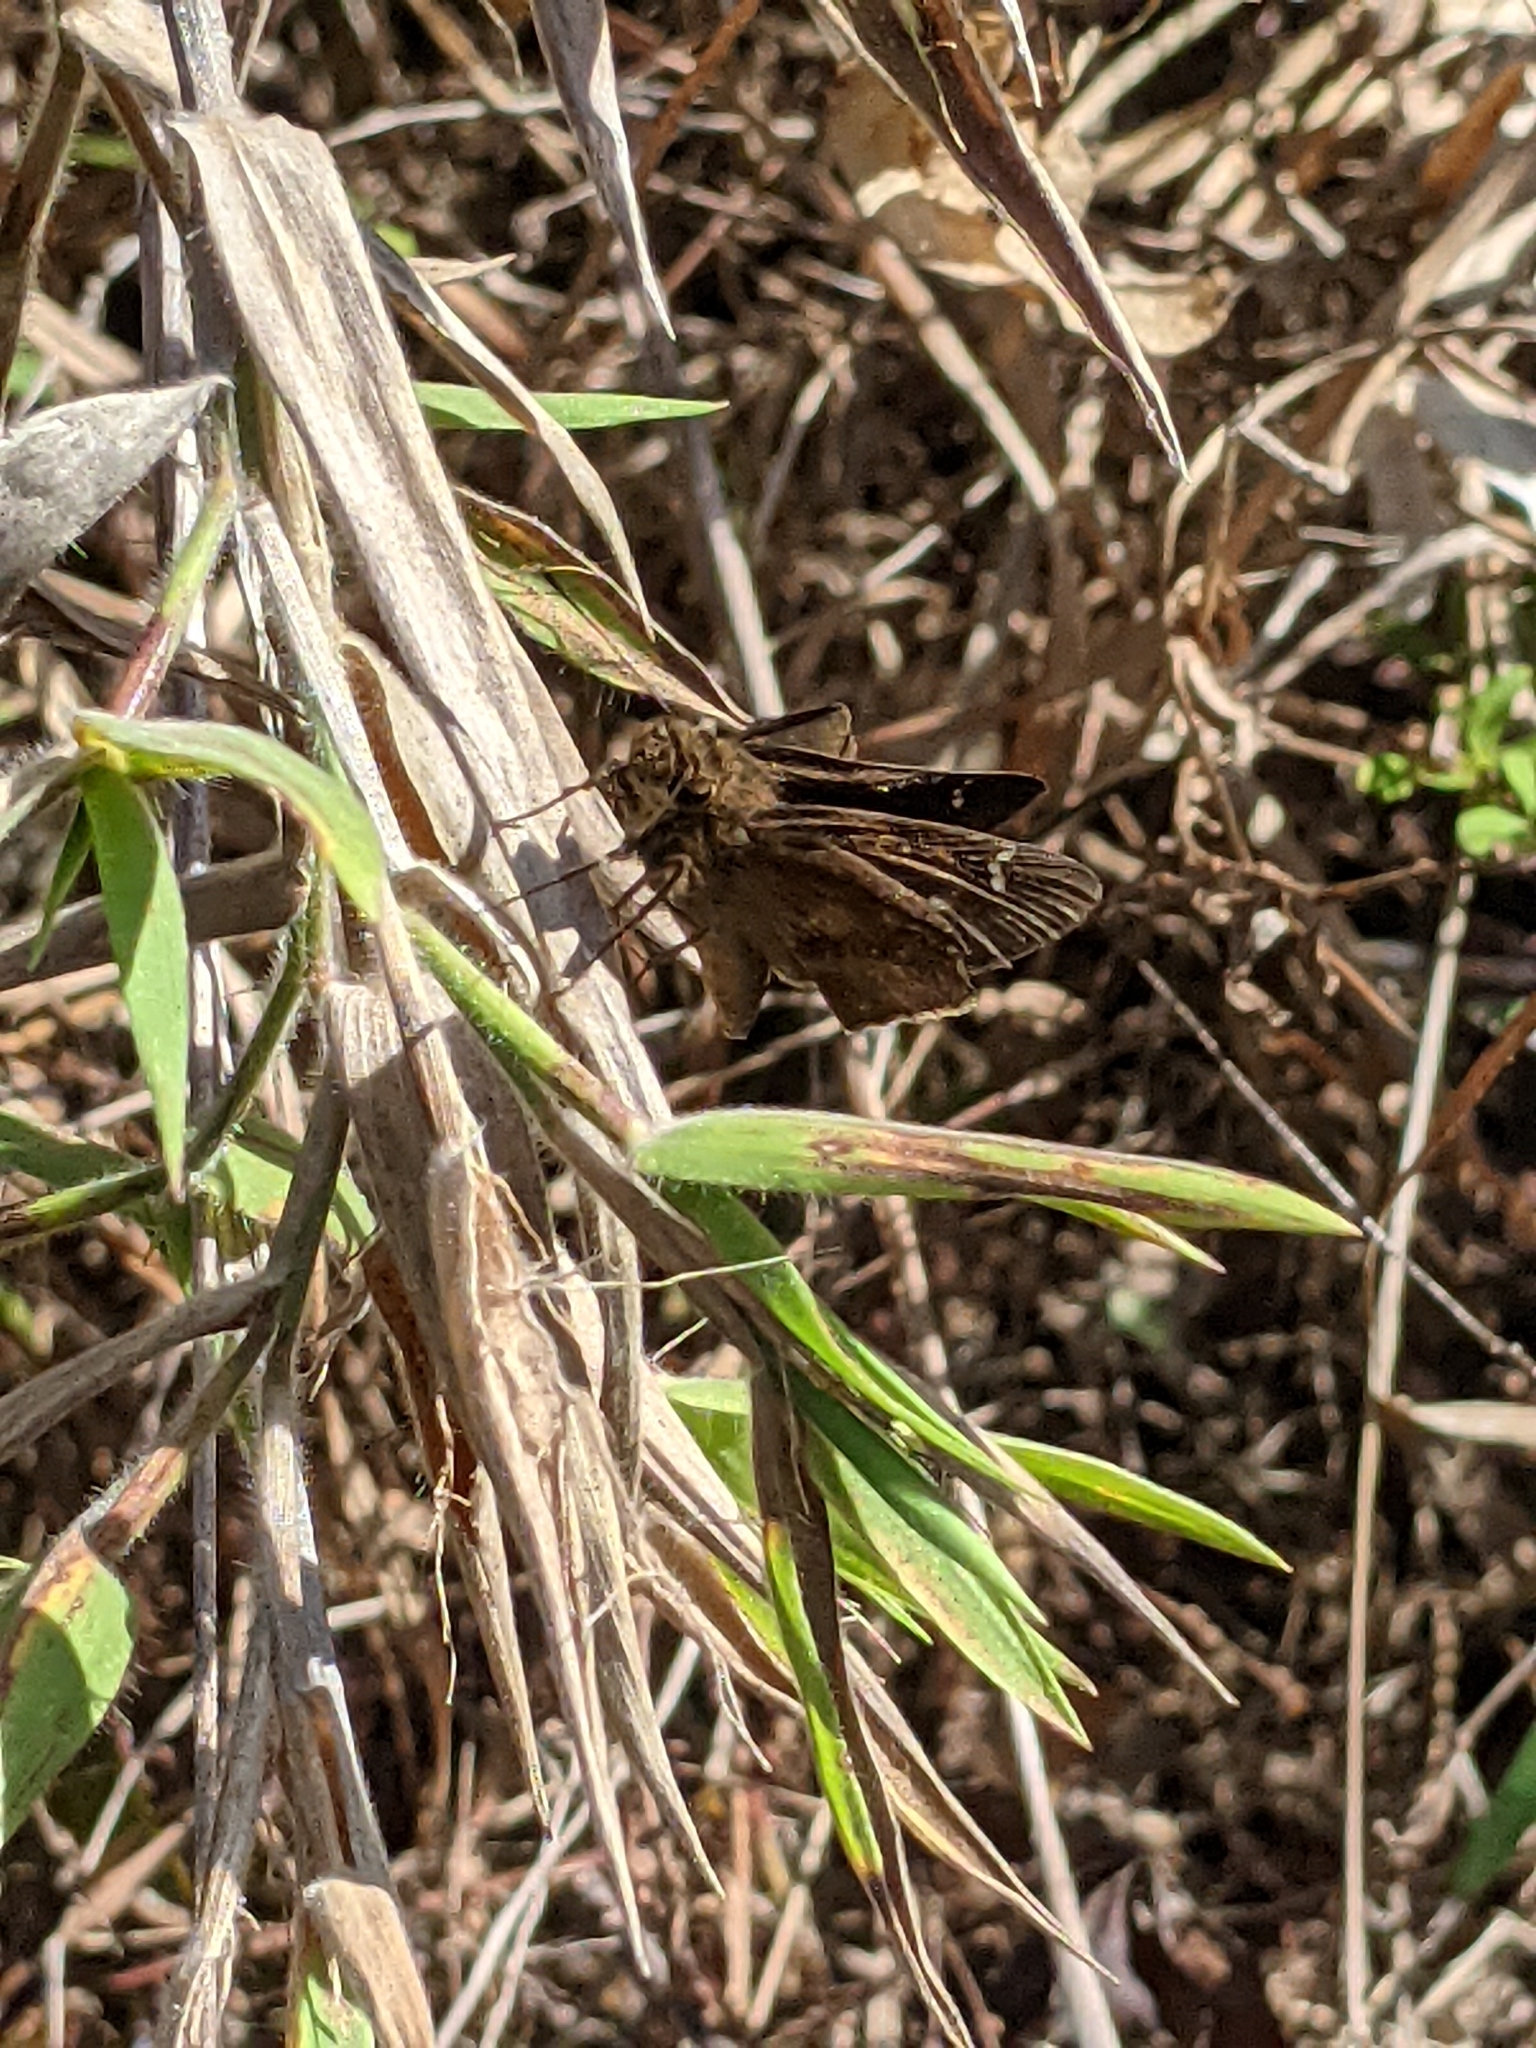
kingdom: Animalia
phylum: Arthropoda
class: Insecta
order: Lepidoptera
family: Hesperiidae
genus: Lerema
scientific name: Lerema accius
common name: Clouded skipper
